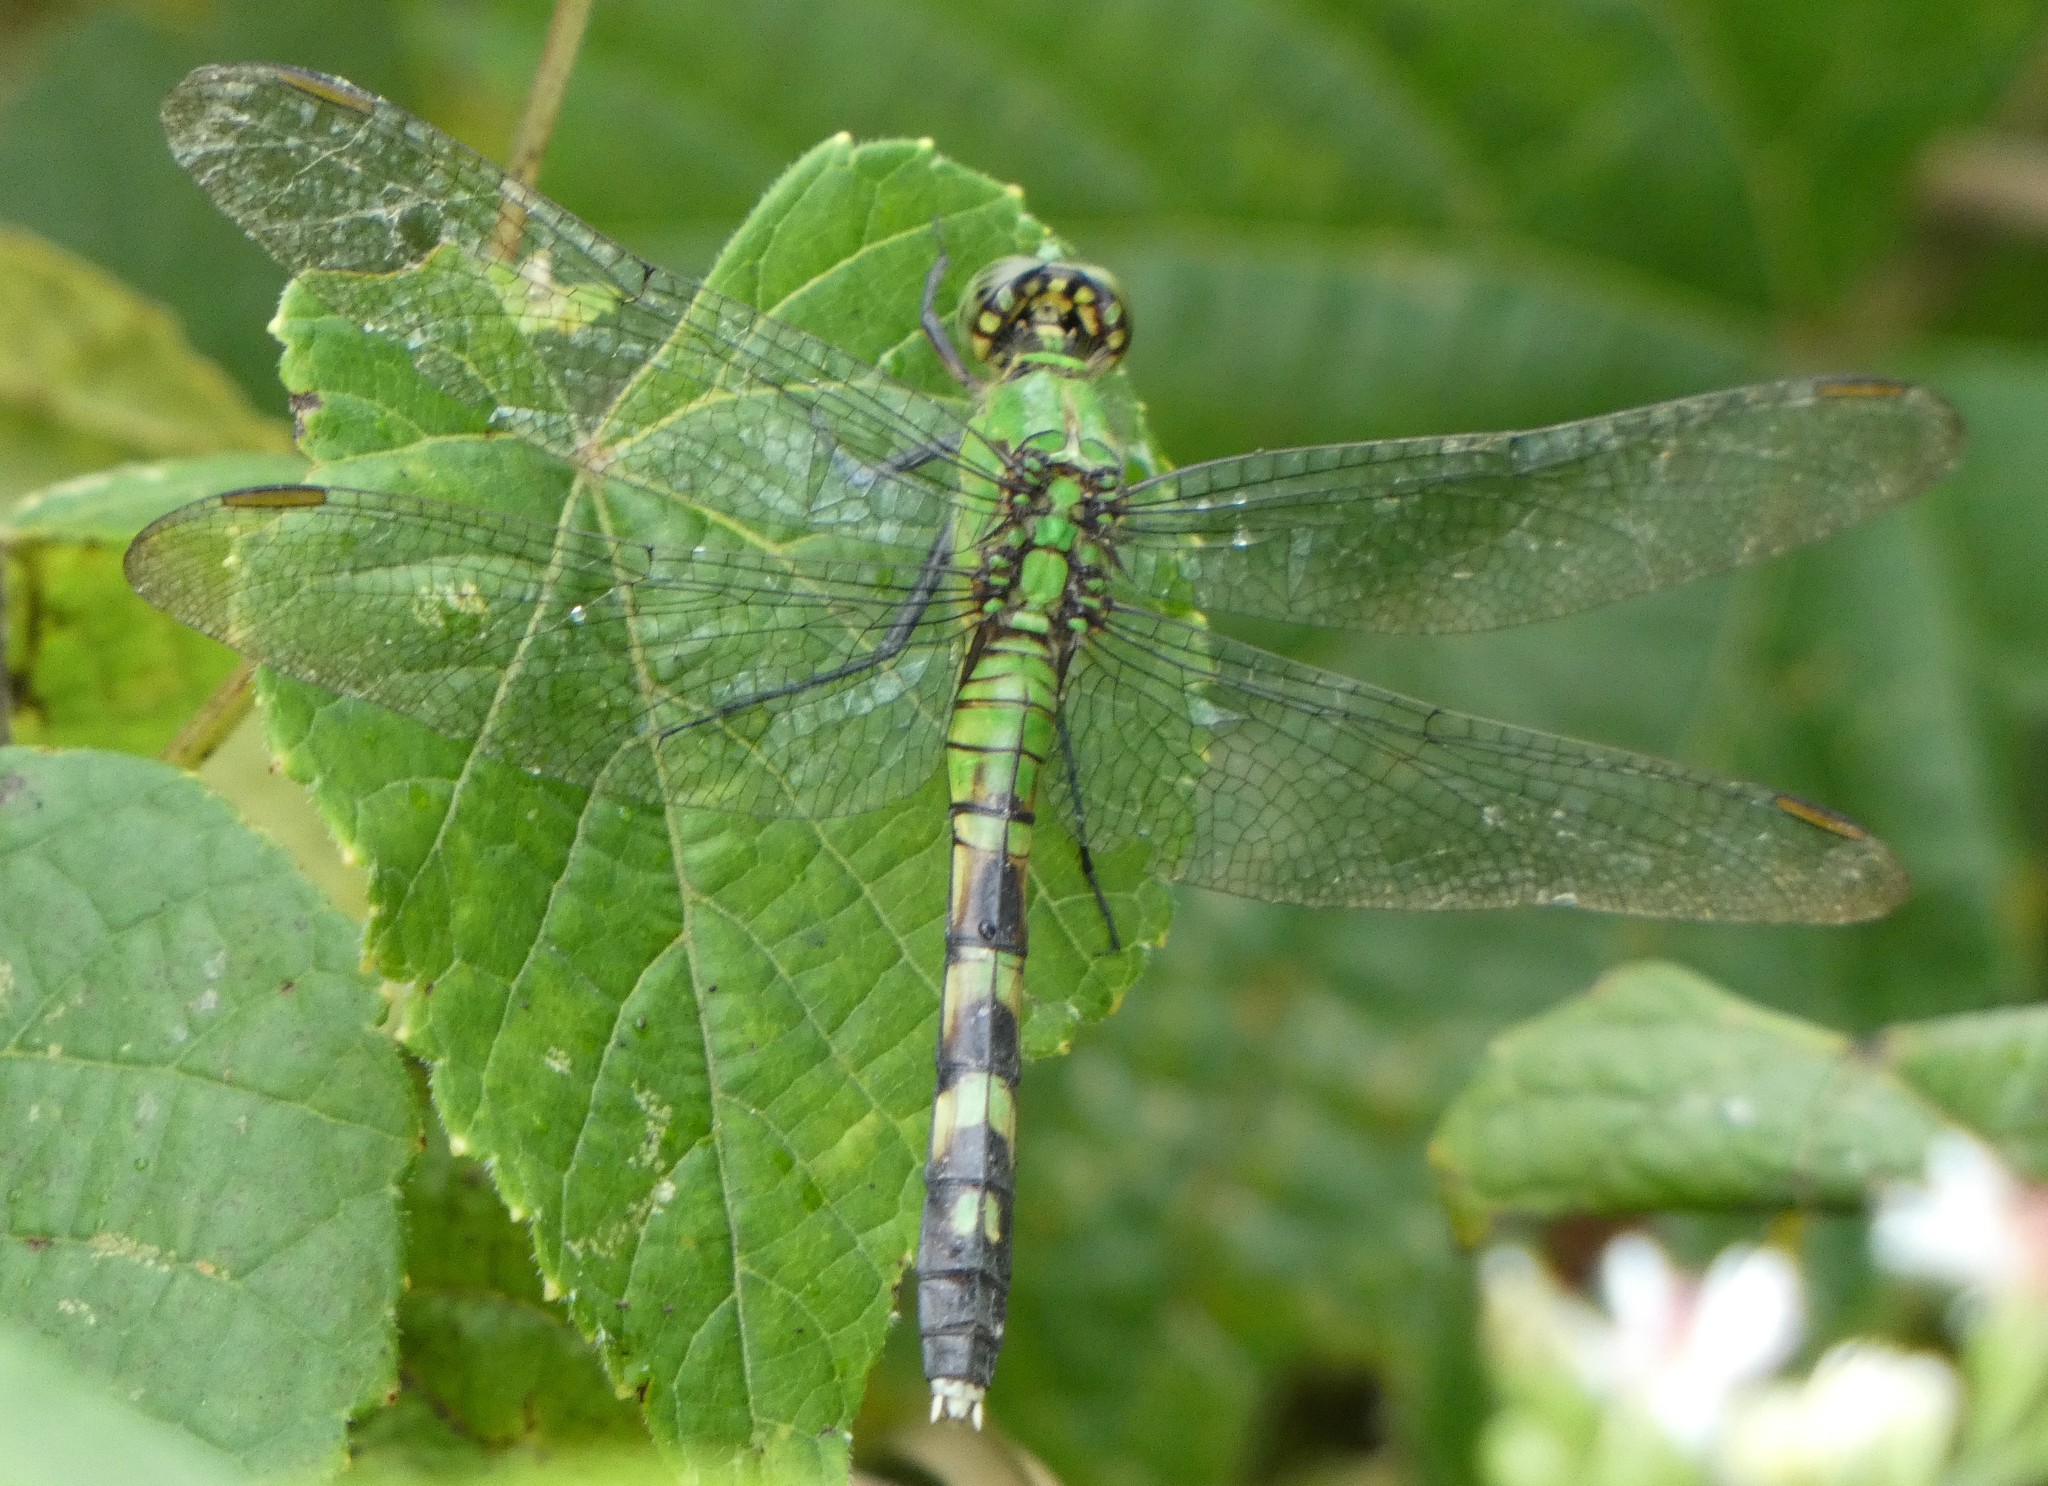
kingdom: Animalia
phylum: Arthropoda
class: Insecta
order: Odonata
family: Libellulidae
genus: Erythemis
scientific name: Erythemis simplicicollis
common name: Eastern pondhawk
